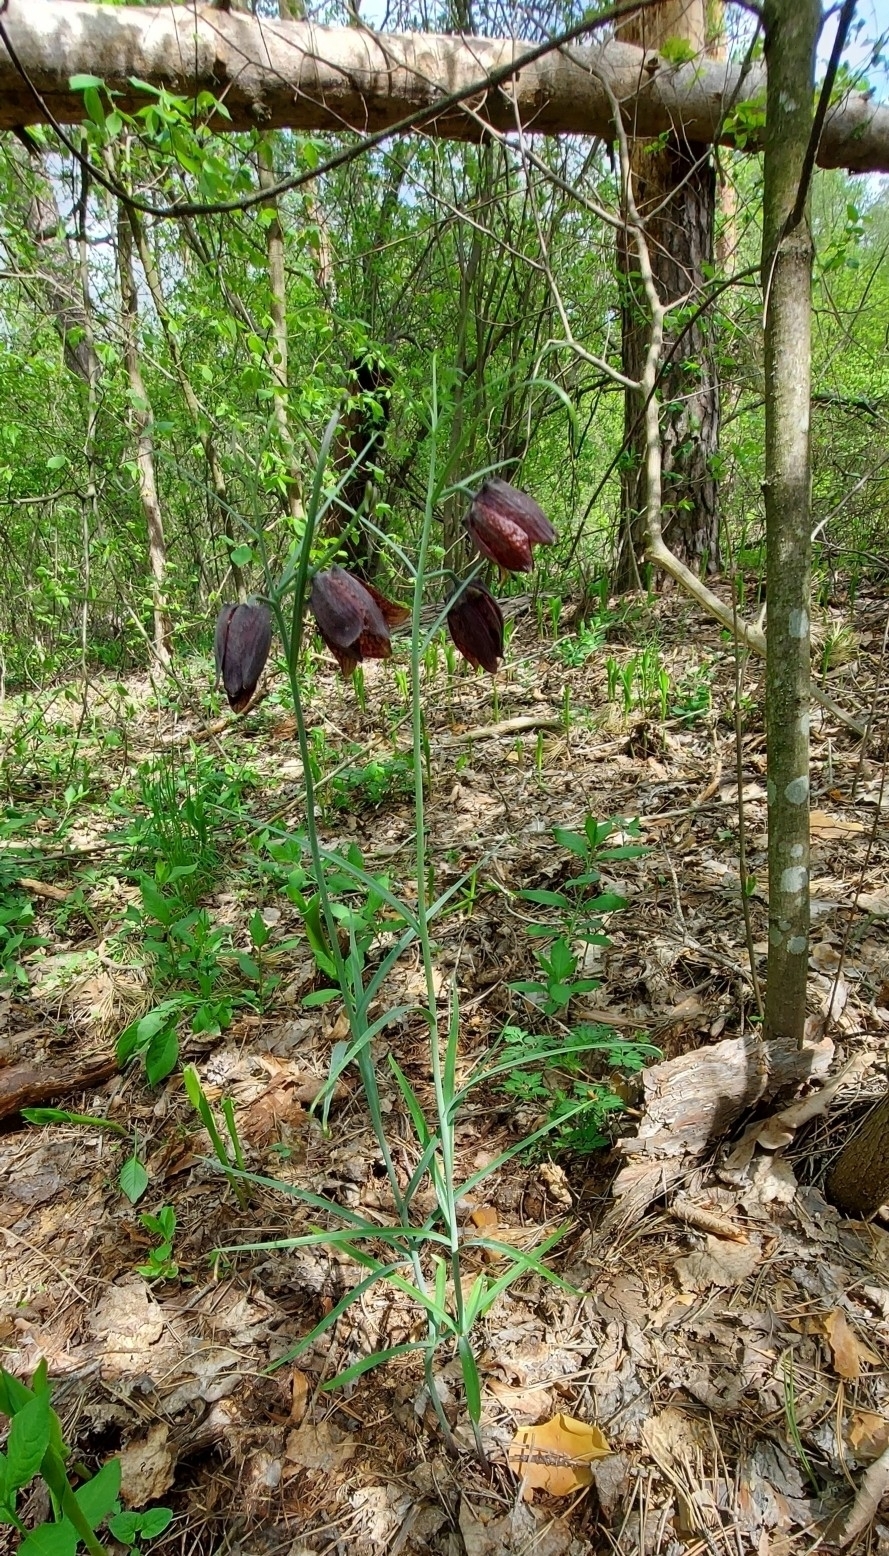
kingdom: Plantae
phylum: Tracheophyta
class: Liliopsida
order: Liliales
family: Liliaceae
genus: Fritillaria
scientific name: Fritillaria ruthenica
